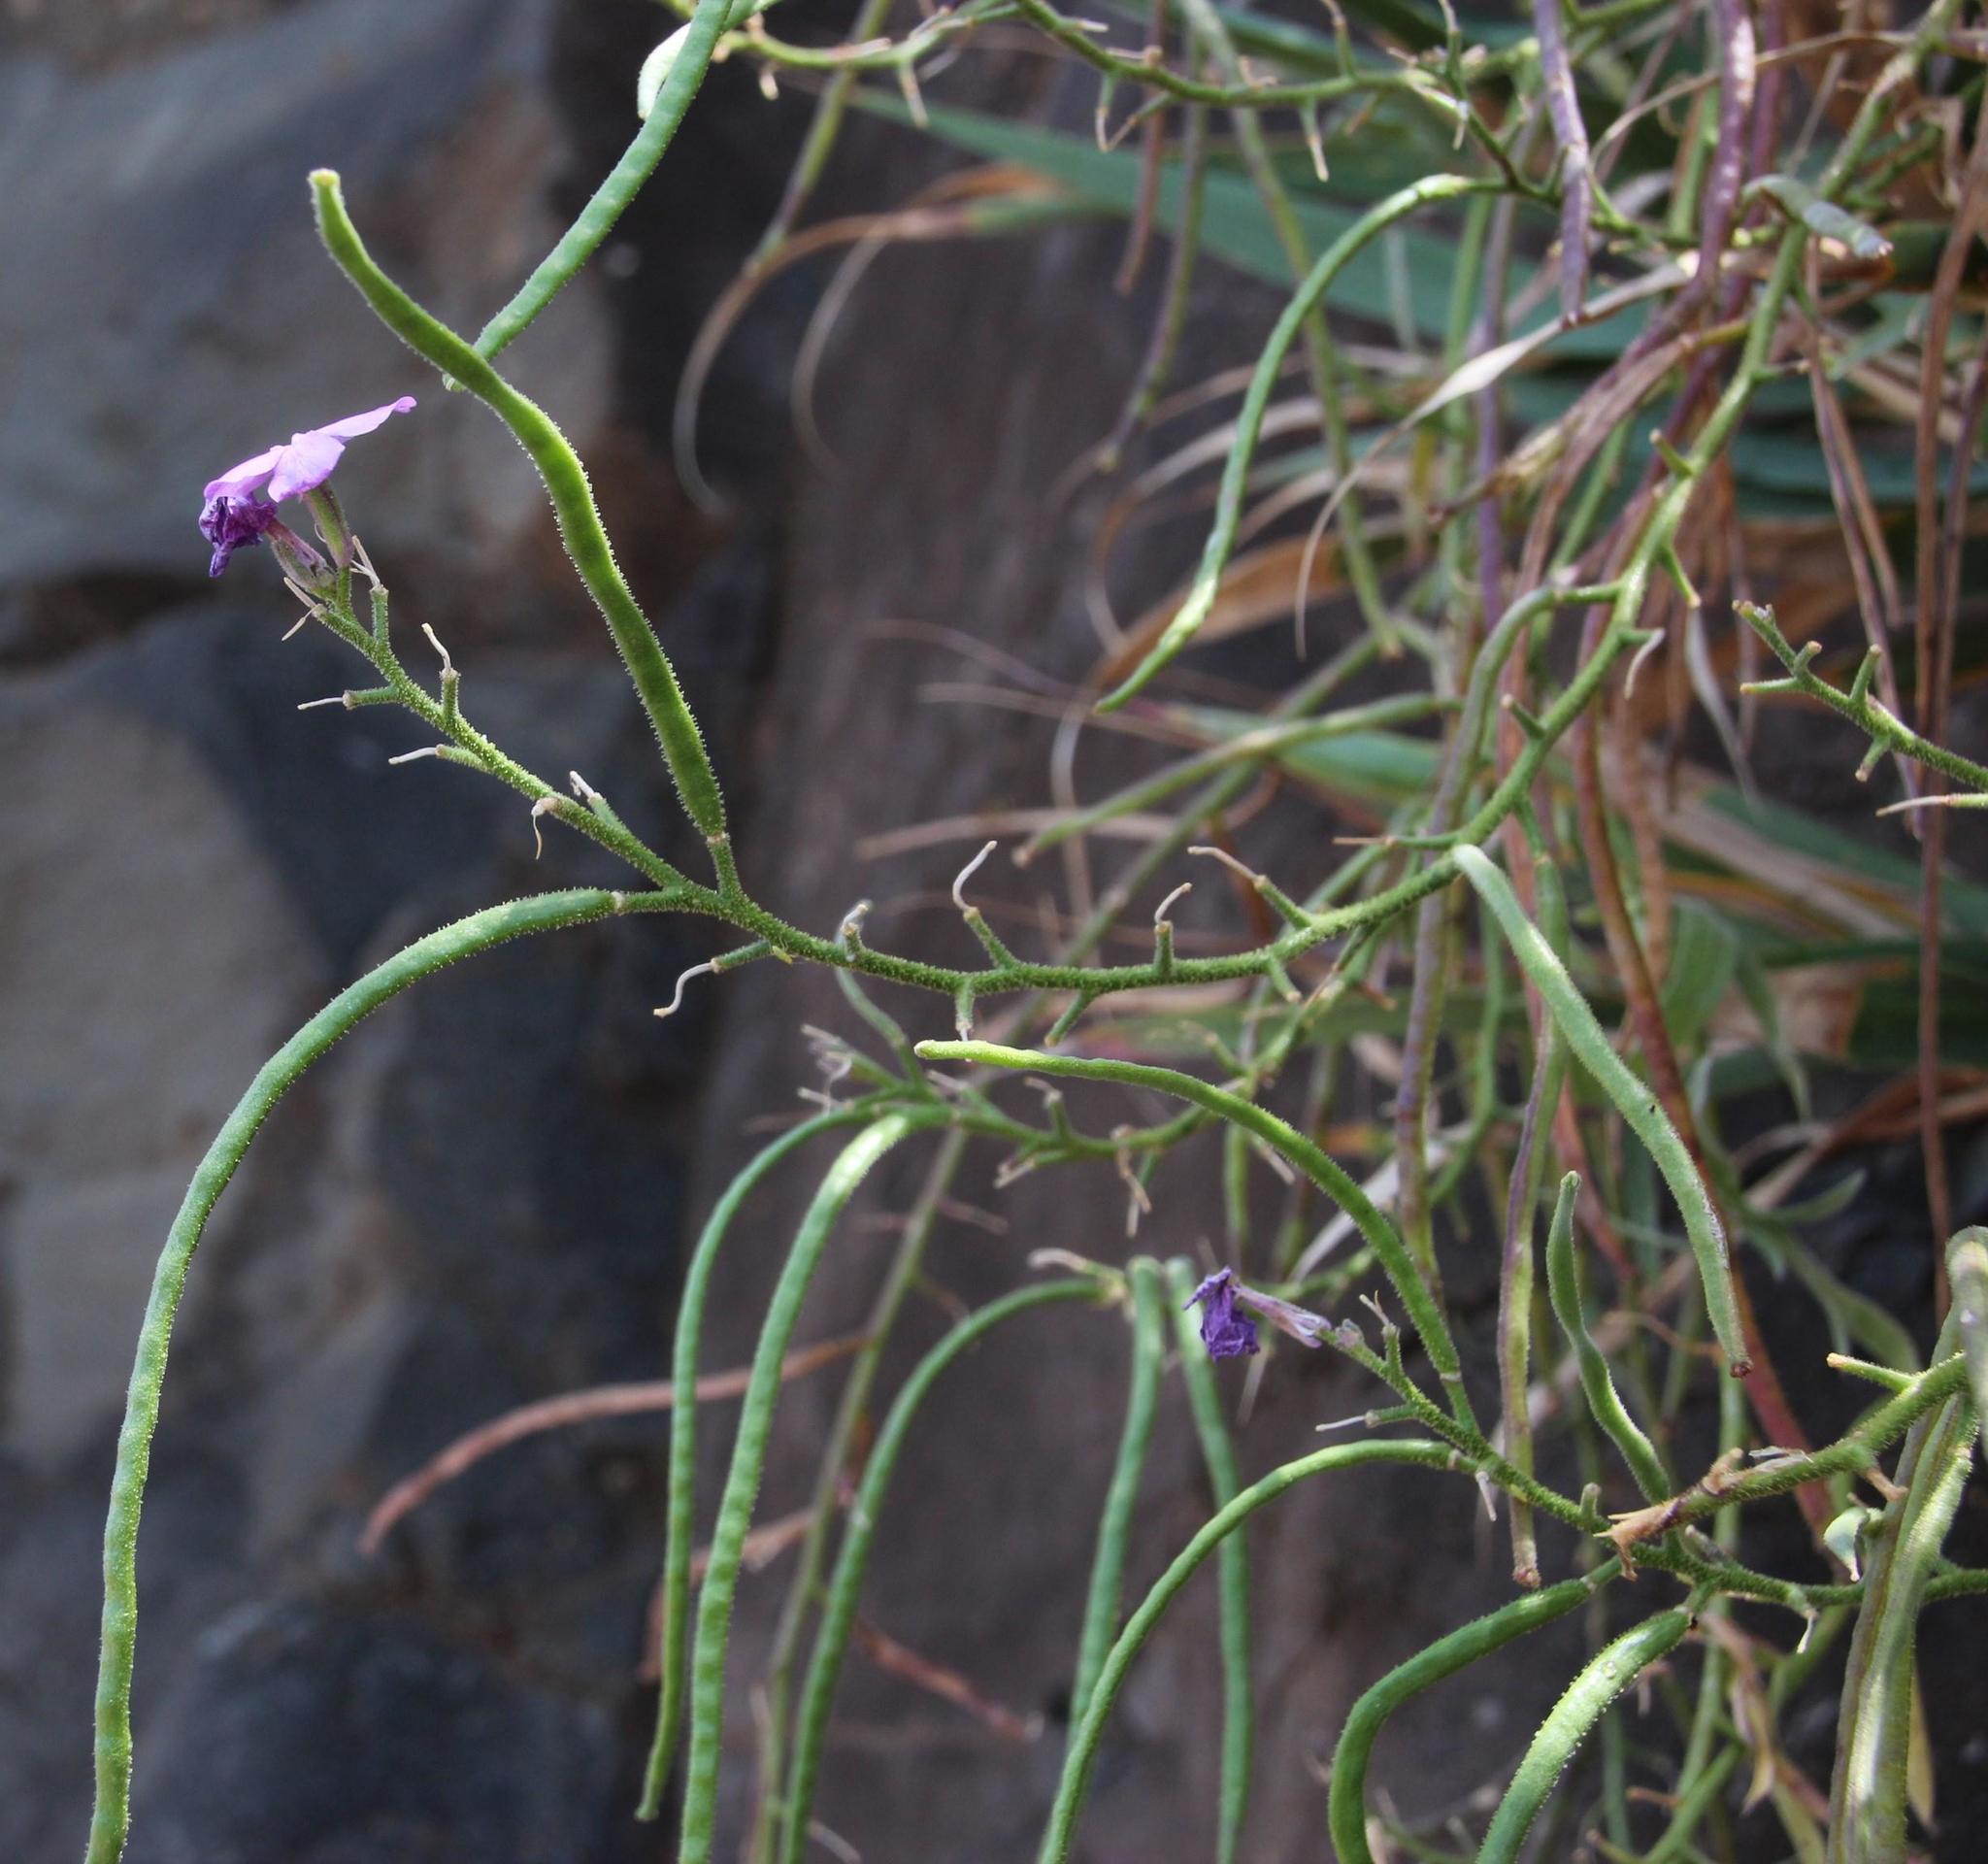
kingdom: Plantae
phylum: Tracheophyta
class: Magnoliopsida
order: Brassicales
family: Brassicaceae
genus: Matthiola
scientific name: Matthiola maderensis
